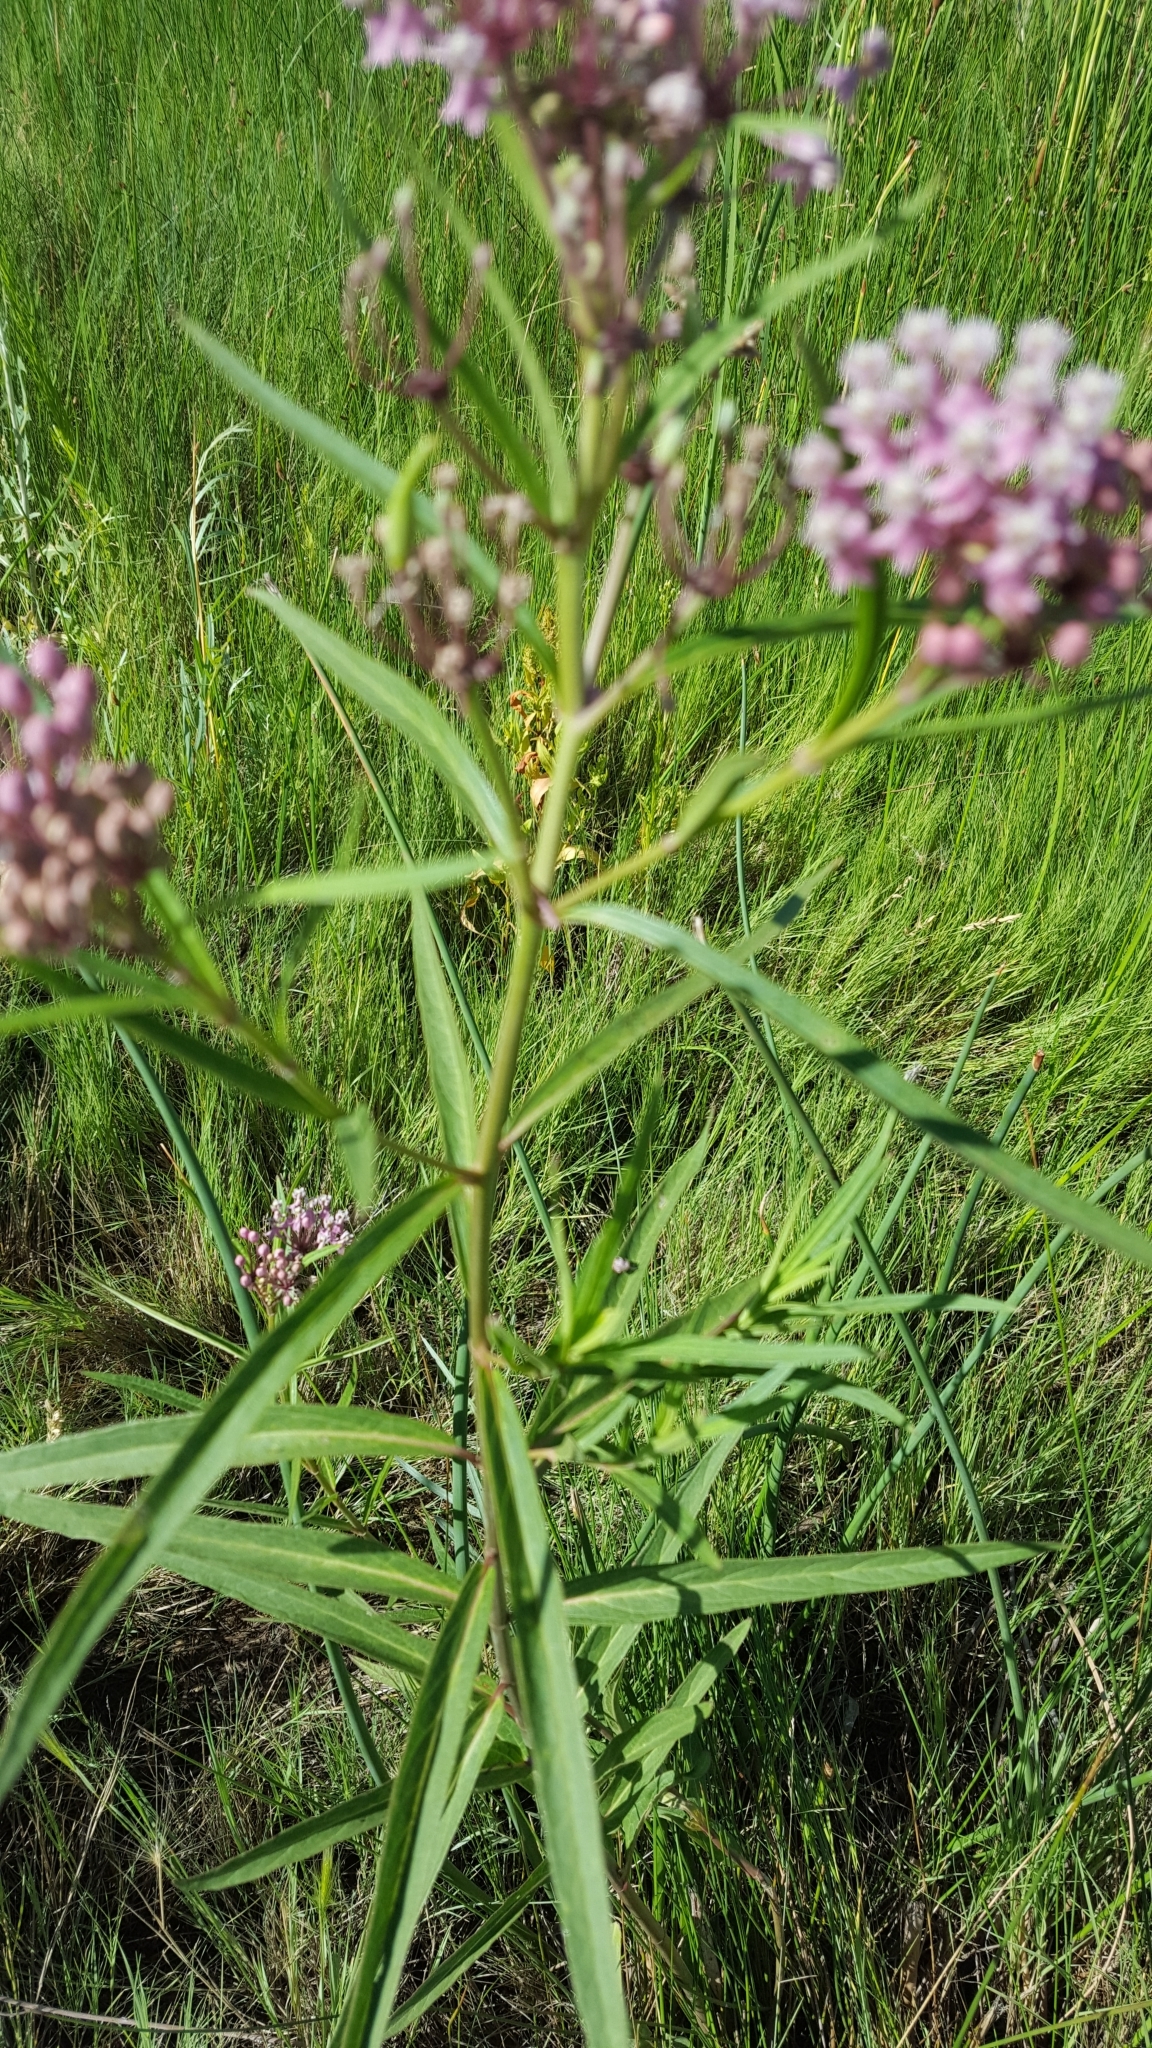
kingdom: Plantae
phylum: Tracheophyta
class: Magnoliopsida
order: Gentianales
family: Apocynaceae
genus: Asclepias
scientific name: Asclepias incarnata
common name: Swamp milkweed
